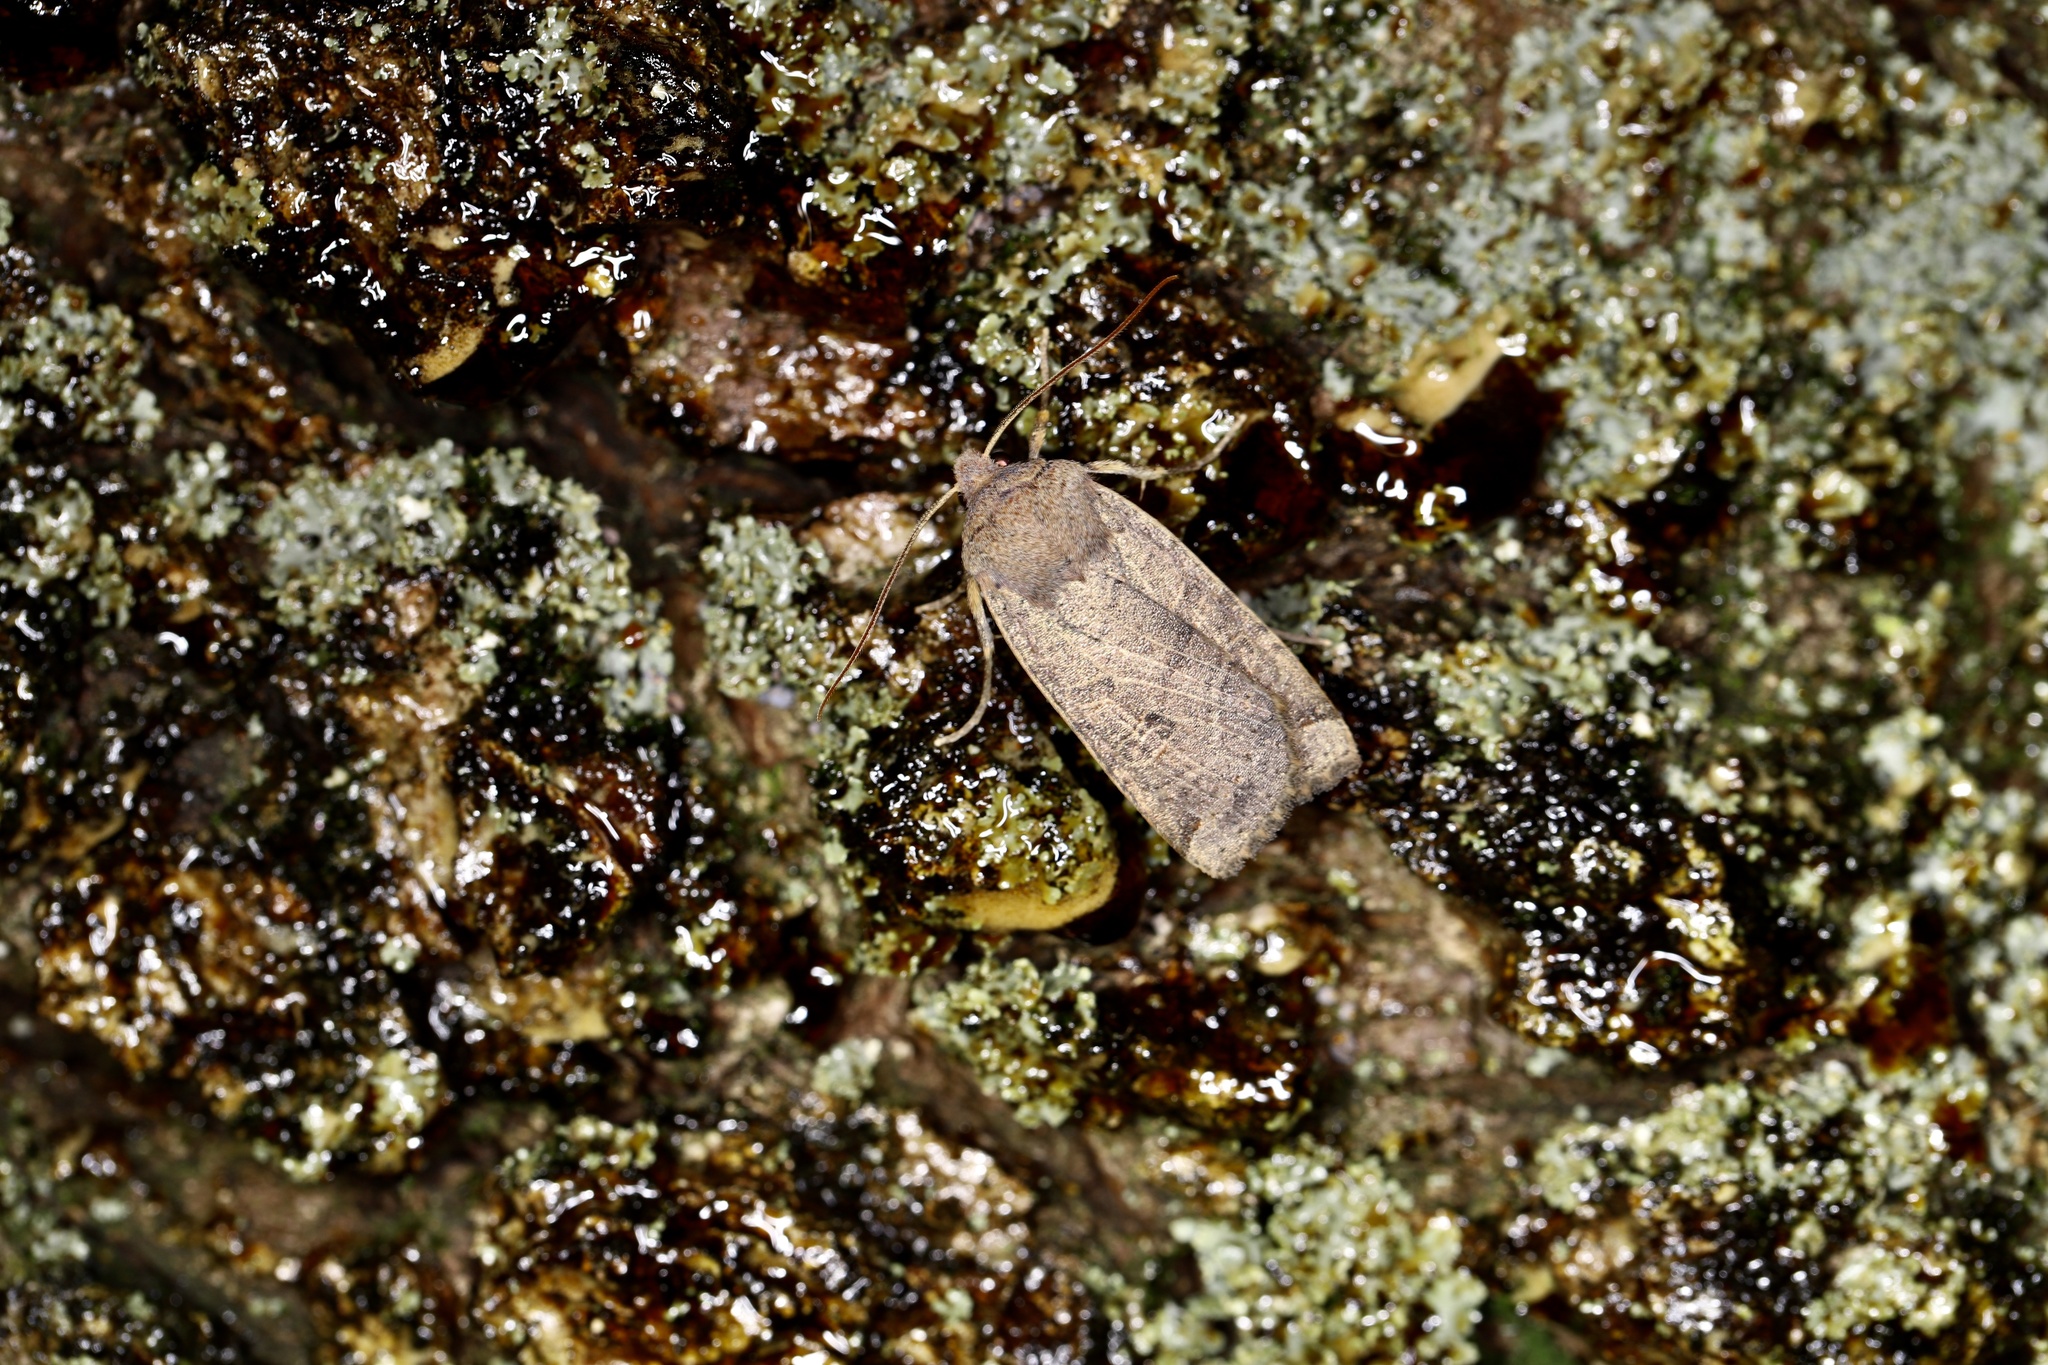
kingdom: Animalia
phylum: Arthropoda
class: Insecta
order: Lepidoptera
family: Noctuidae
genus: Conistra
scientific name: Conistra veronicae
